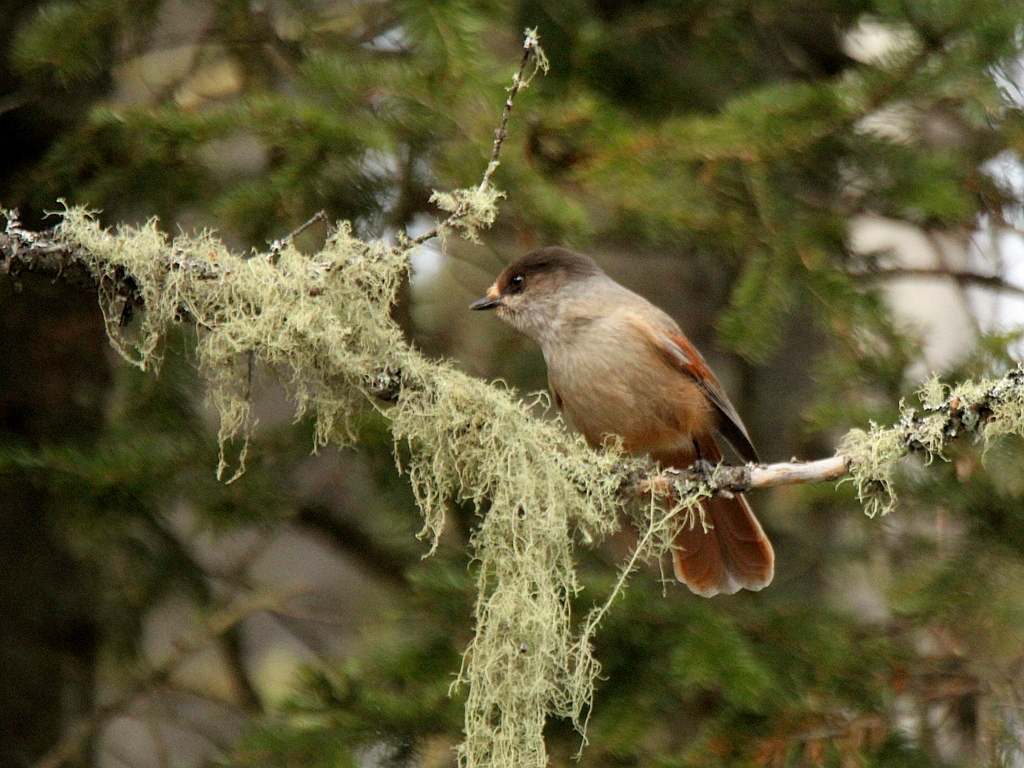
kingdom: Animalia
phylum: Chordata
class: Aves
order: Passeriformes
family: Corvidae
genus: Perisoreus
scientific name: Perisoreus infaustus
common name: Siberian jay
